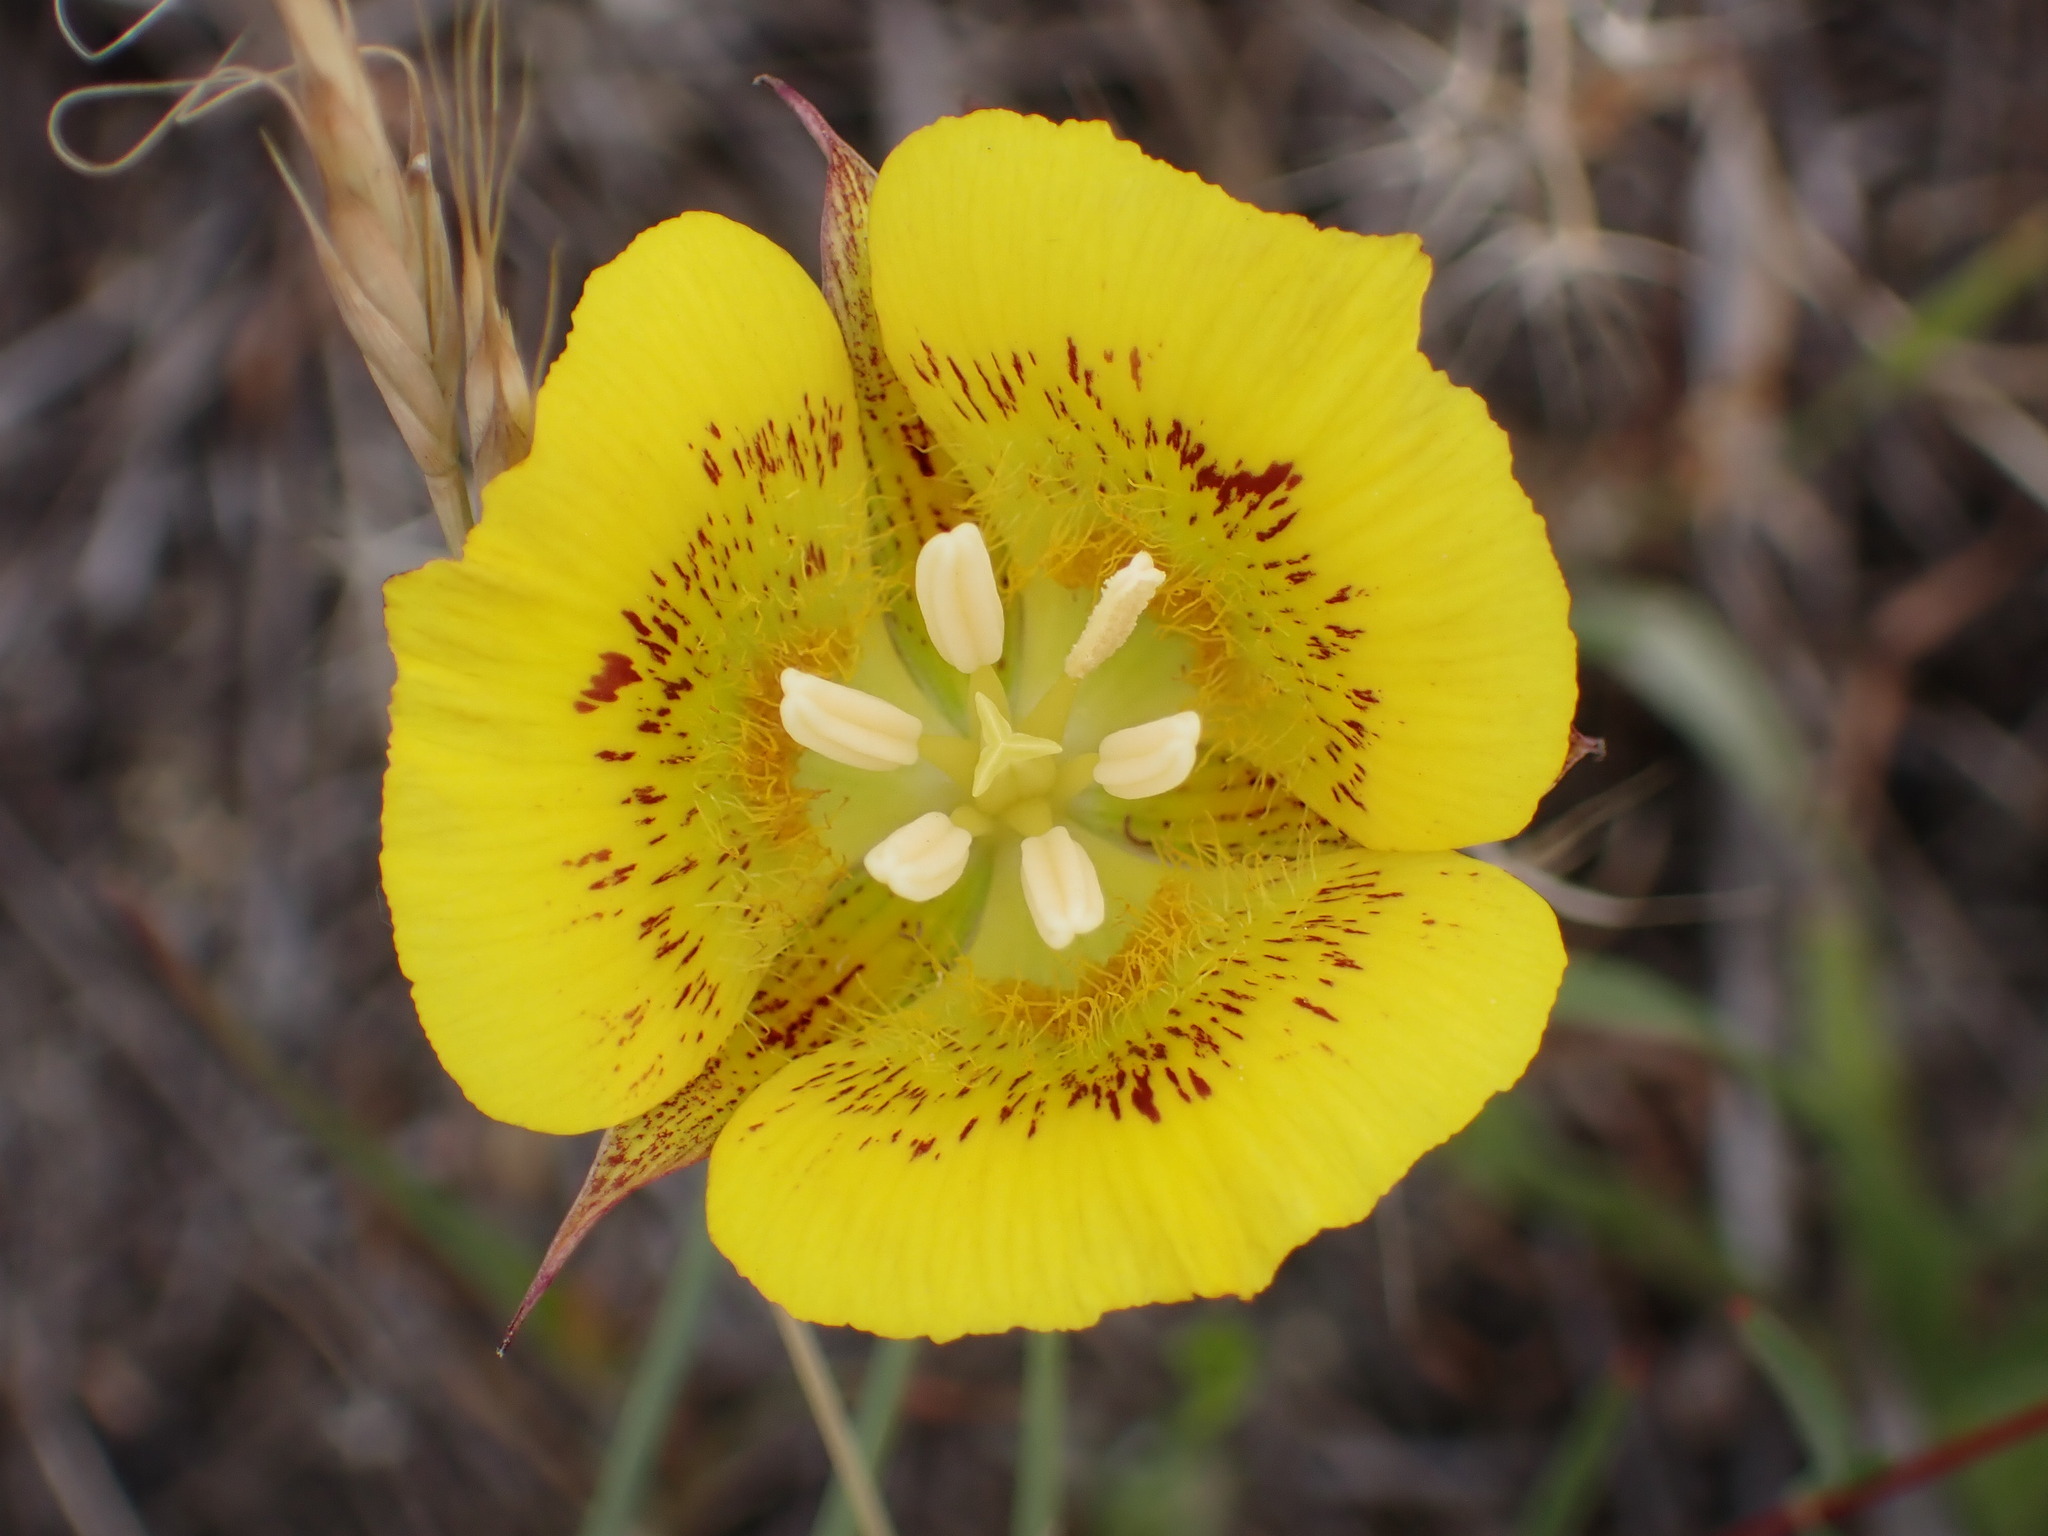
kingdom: Plantae
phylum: Tracheophyta
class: Liliopsida
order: Liliales
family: Liliaceae
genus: Calochortus
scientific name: Calochortus luteus
